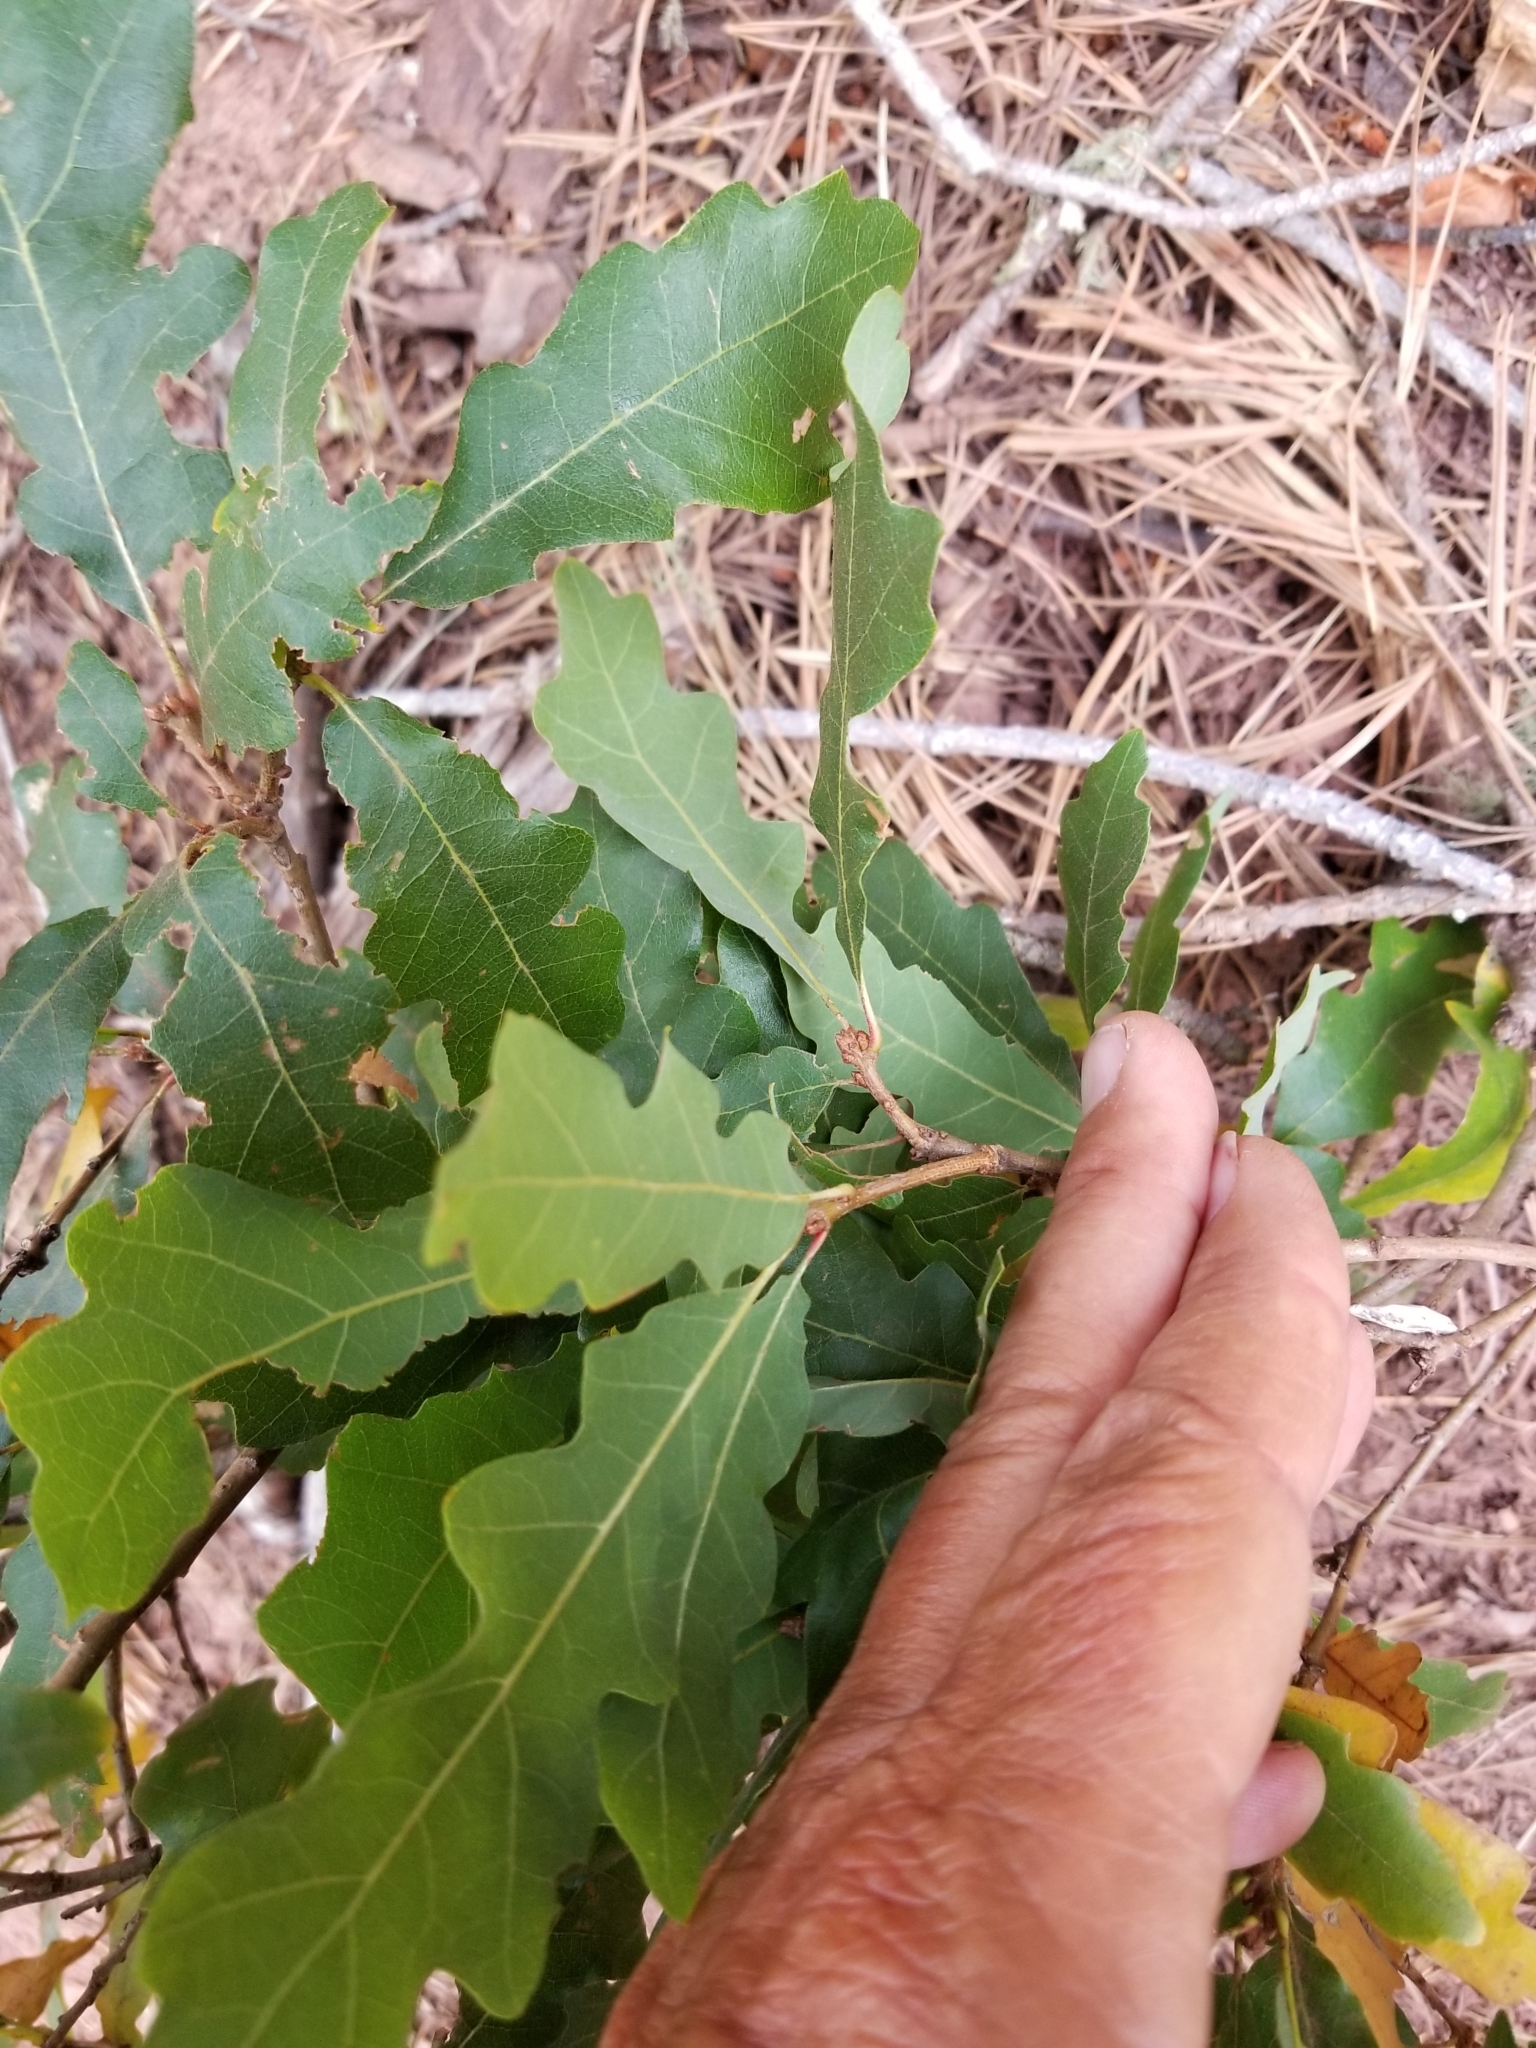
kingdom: Plantae
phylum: Tracheophyta
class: Magnoliopsida
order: Fagales
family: Fagaceae
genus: Quercus
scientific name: Quercus gambelii
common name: Gambel oak
